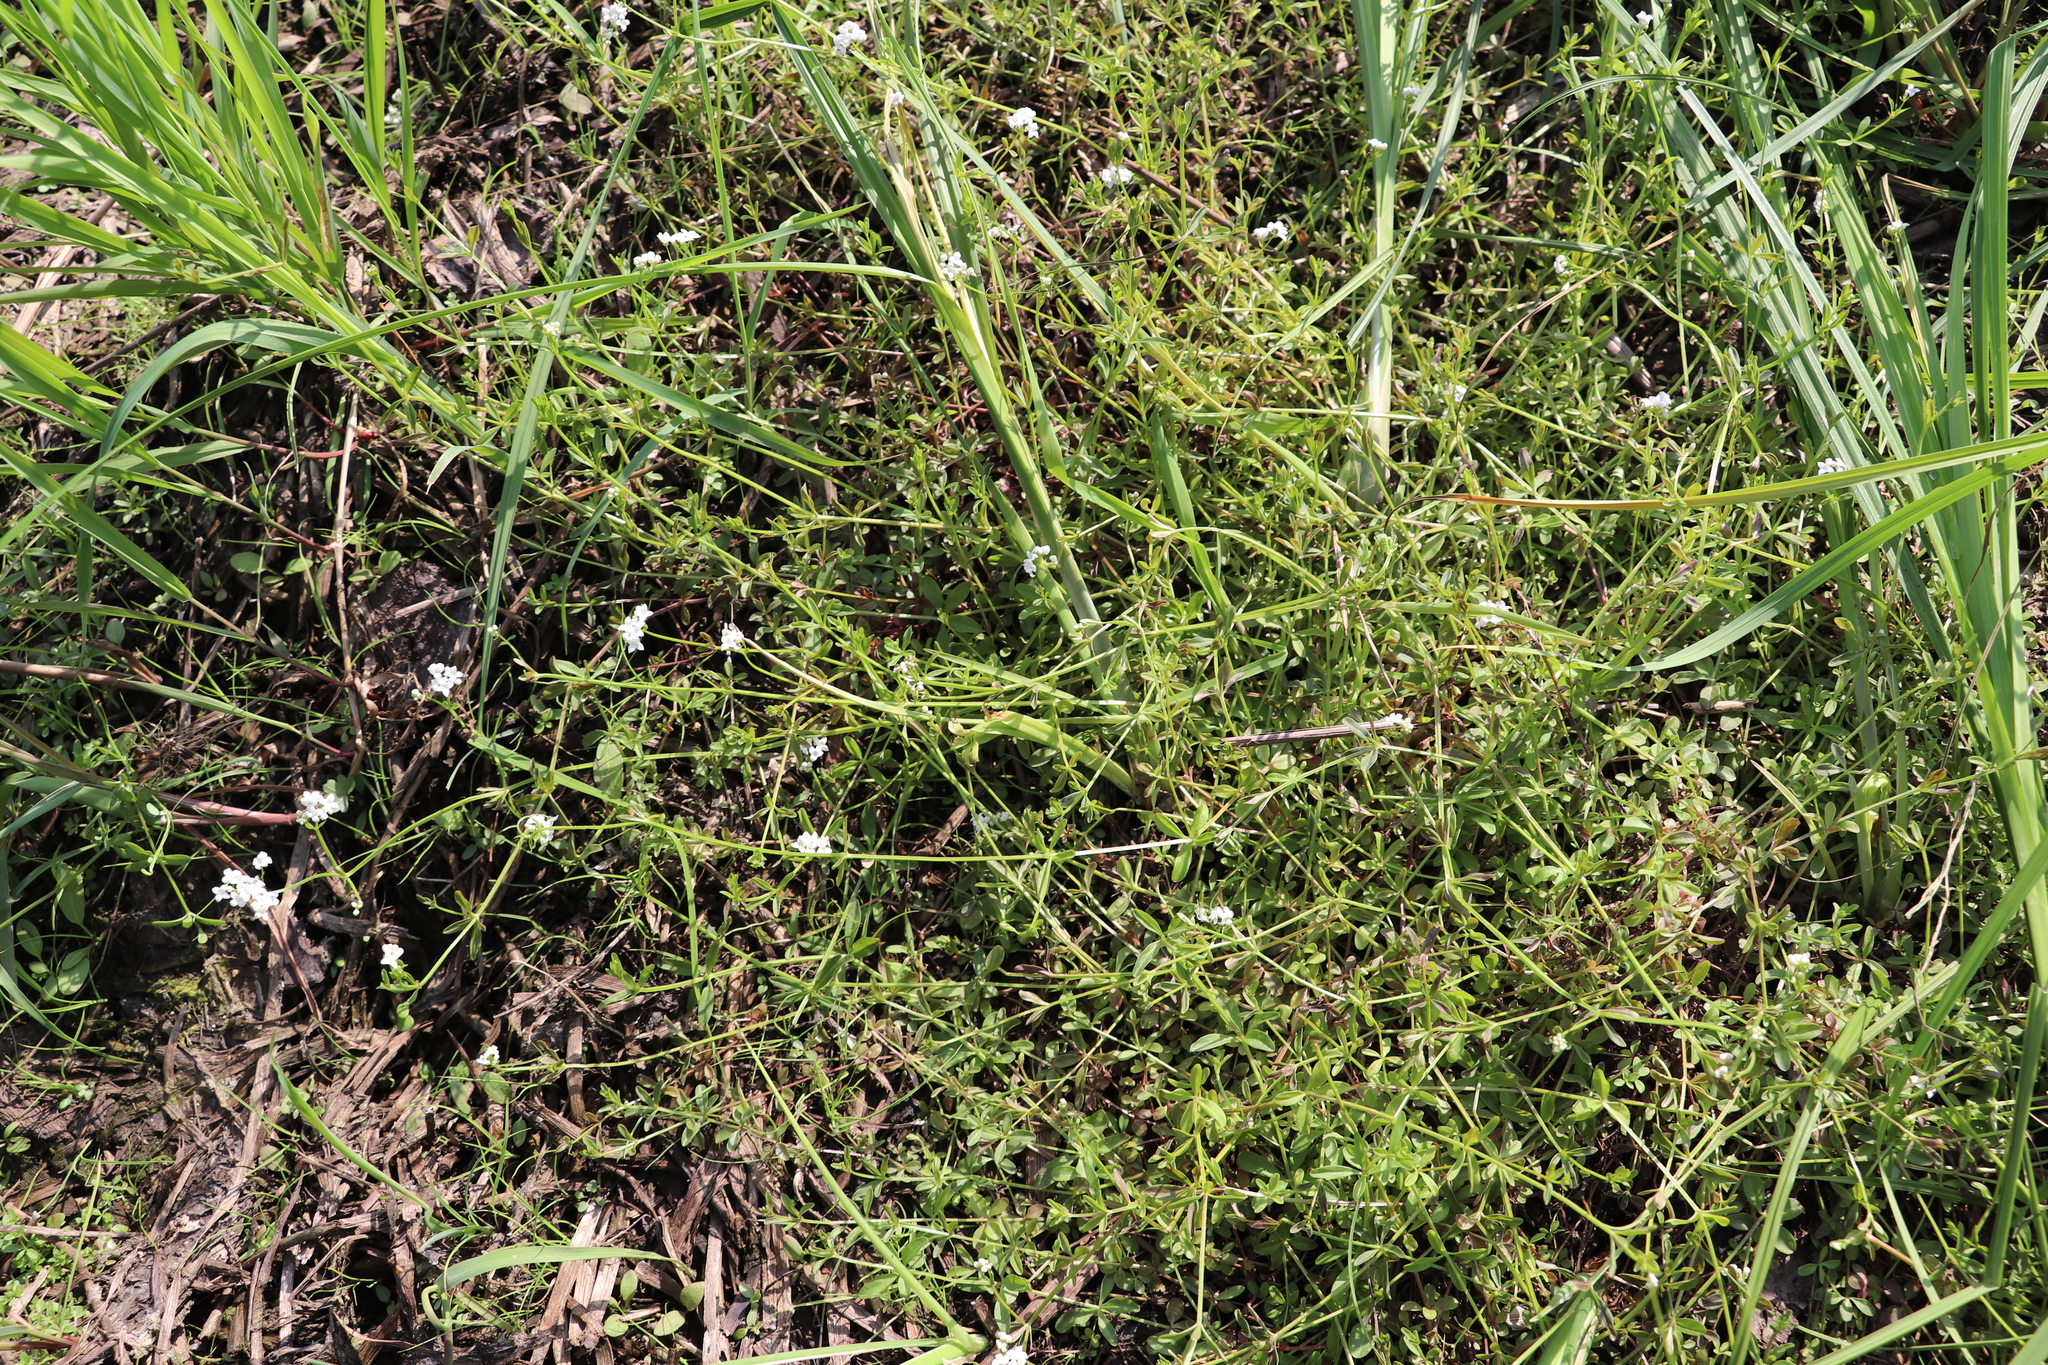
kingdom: Plantae
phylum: Tracheophyta
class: Magnoliopsida
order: Gentianales
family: Rubiaceae
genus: Galium
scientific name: Galium palustre
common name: Common marsh-bedstraw
